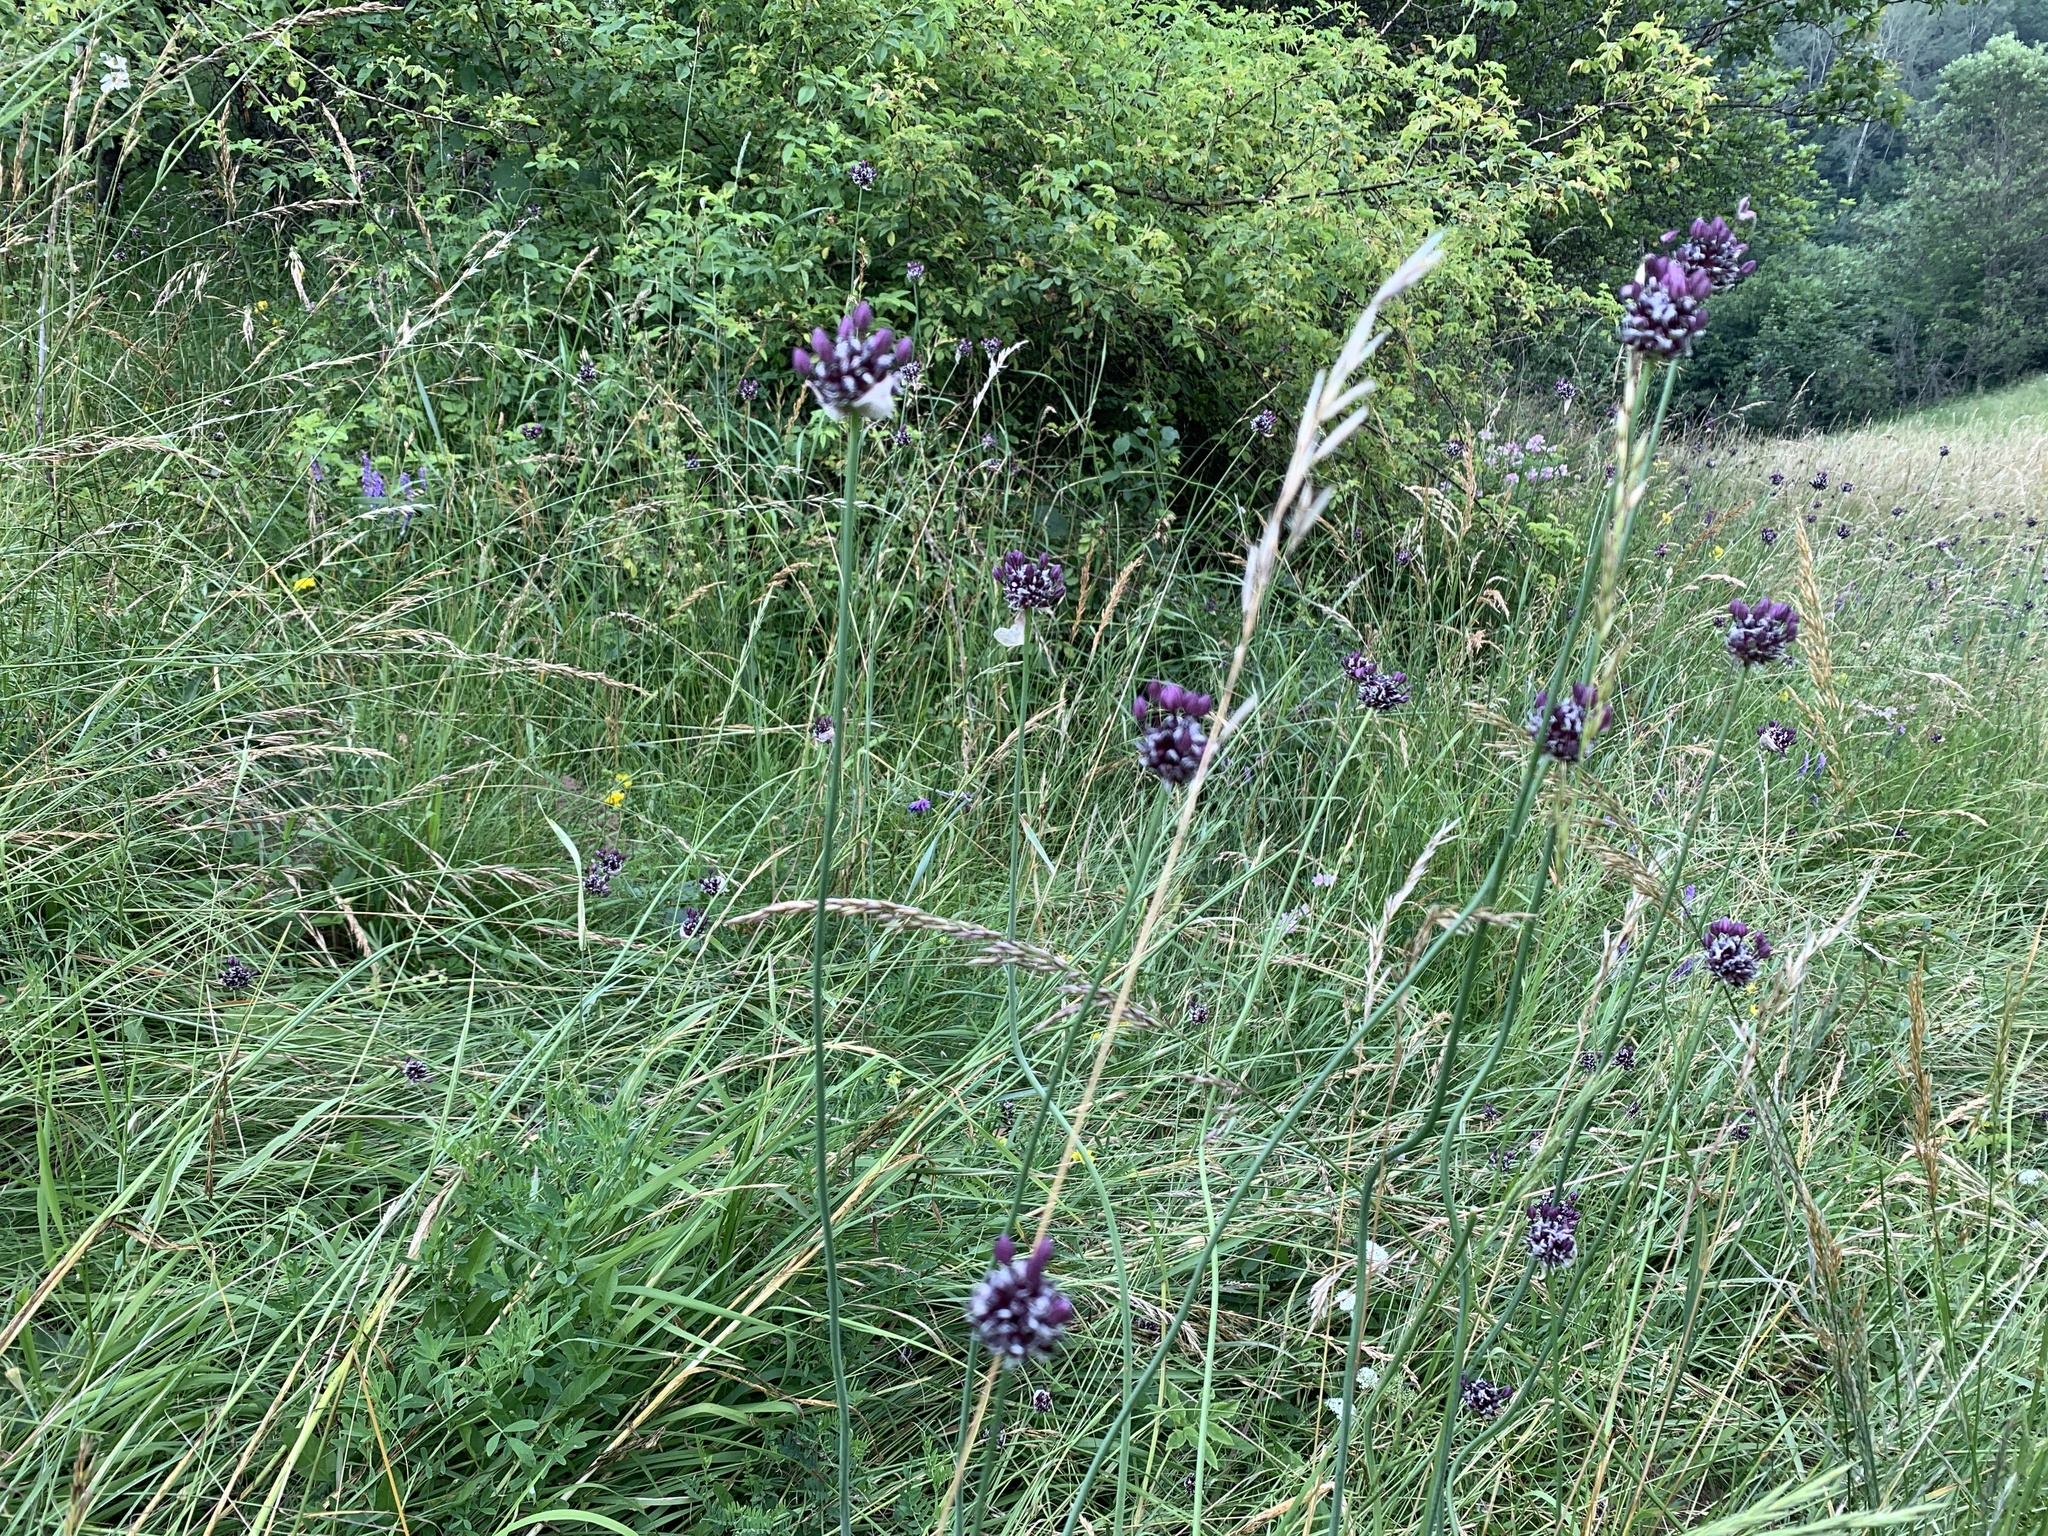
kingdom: Plantae
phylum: Tracheophyta
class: Liliopsida
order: Asparagales
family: Amaryllidaceae
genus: Allium
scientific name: Allium scorodoprasum
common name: Sand leek
